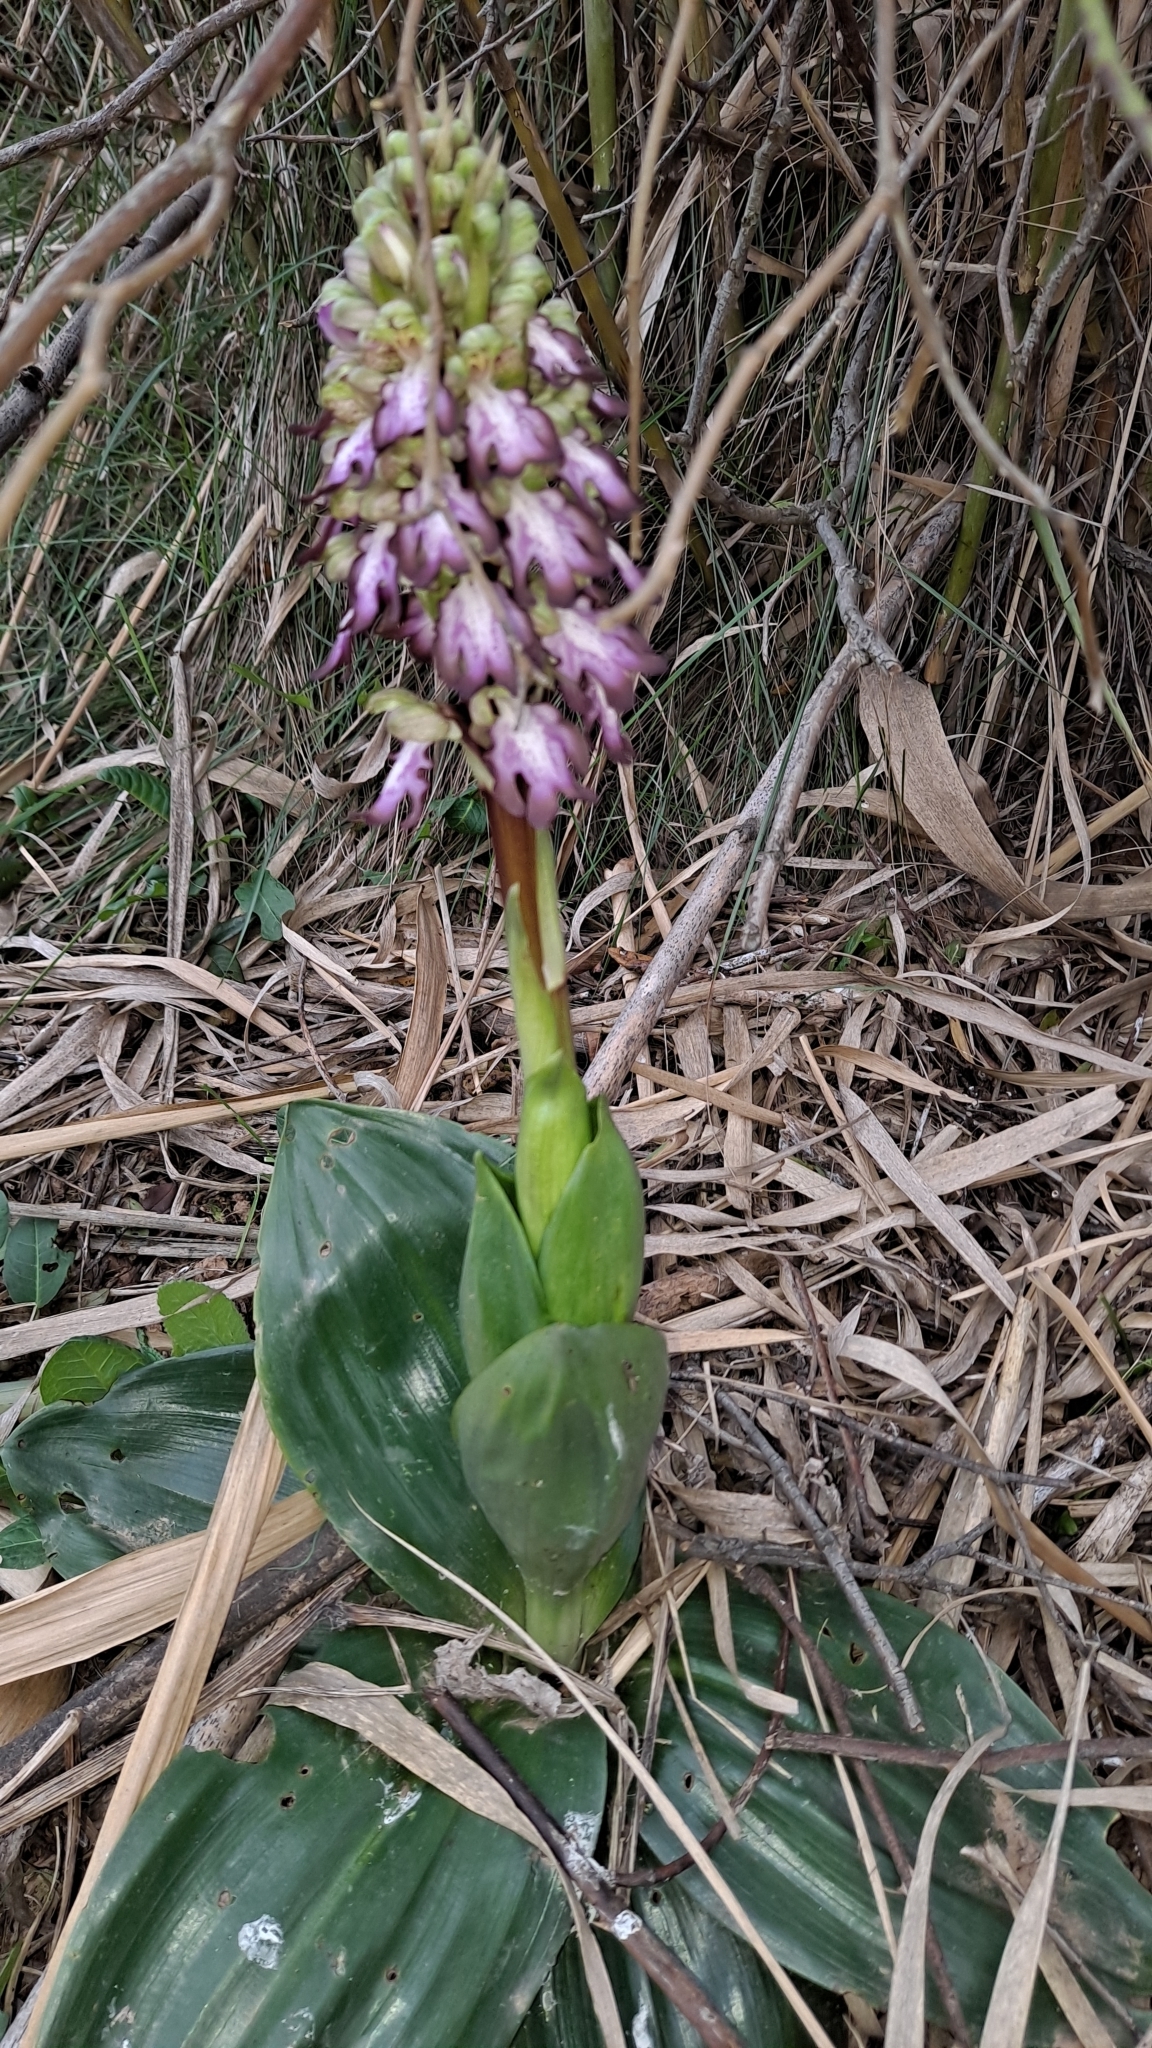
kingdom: Plantae
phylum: Tracheophyta
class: Liliopsida
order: Asparagales
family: Orchidaceae
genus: Himantoglossum
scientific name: Himantoglossum robertianum
